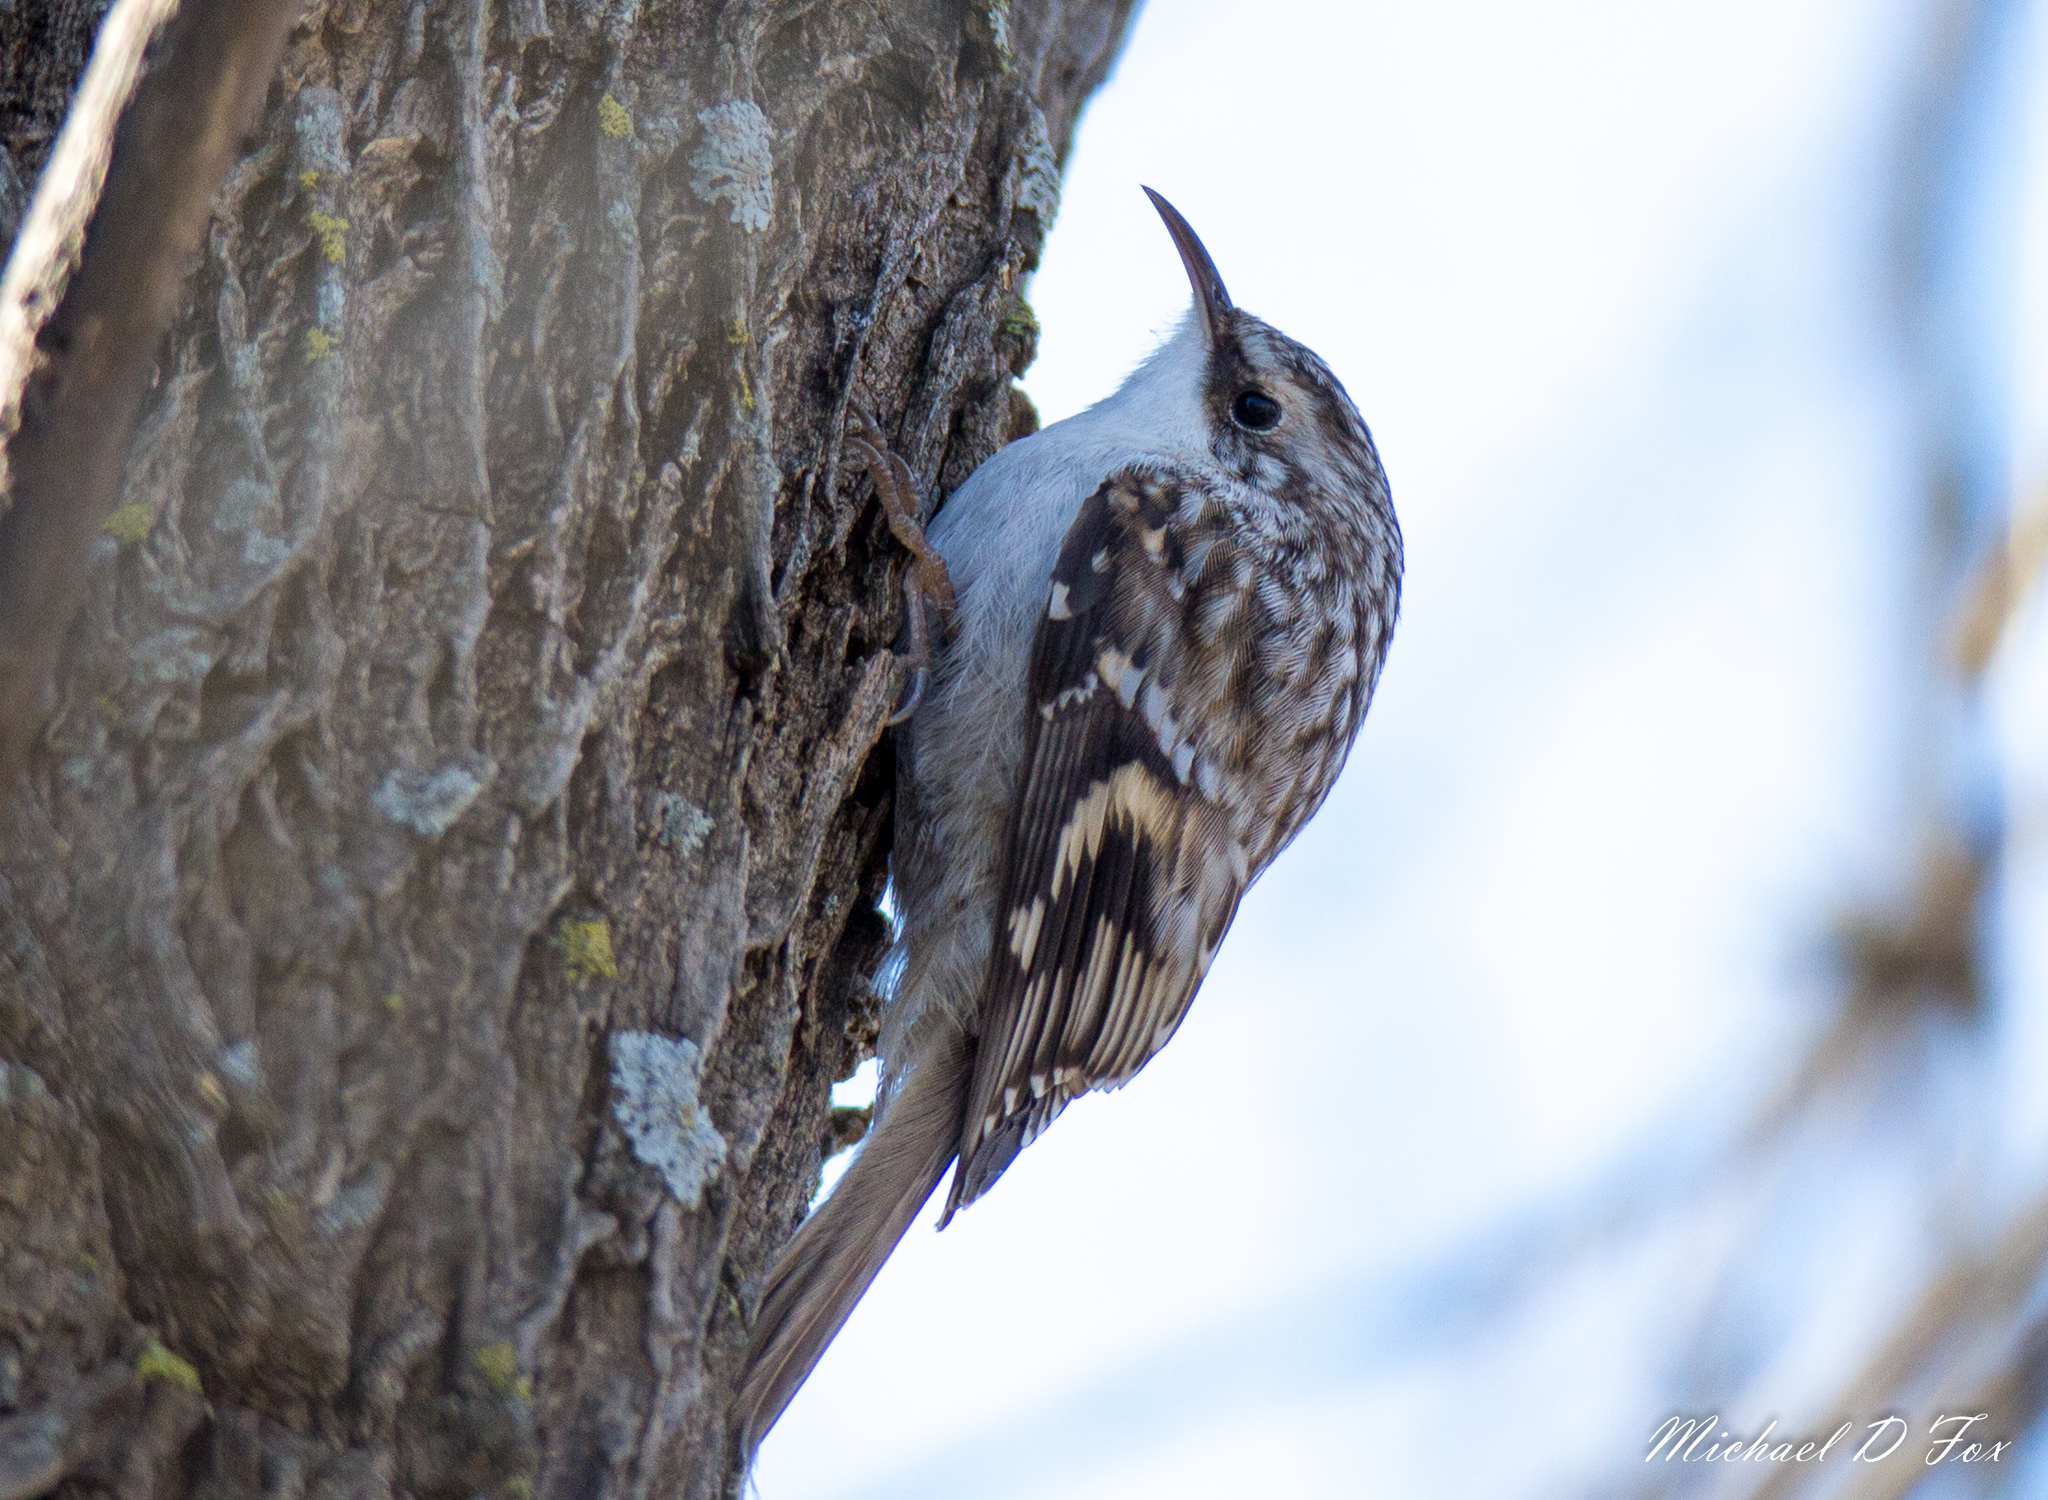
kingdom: Animalia
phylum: Chordata
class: Aves
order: Passeriformes
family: Certhiidae
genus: Certhia
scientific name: Certhia americana
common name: Brown creeper
